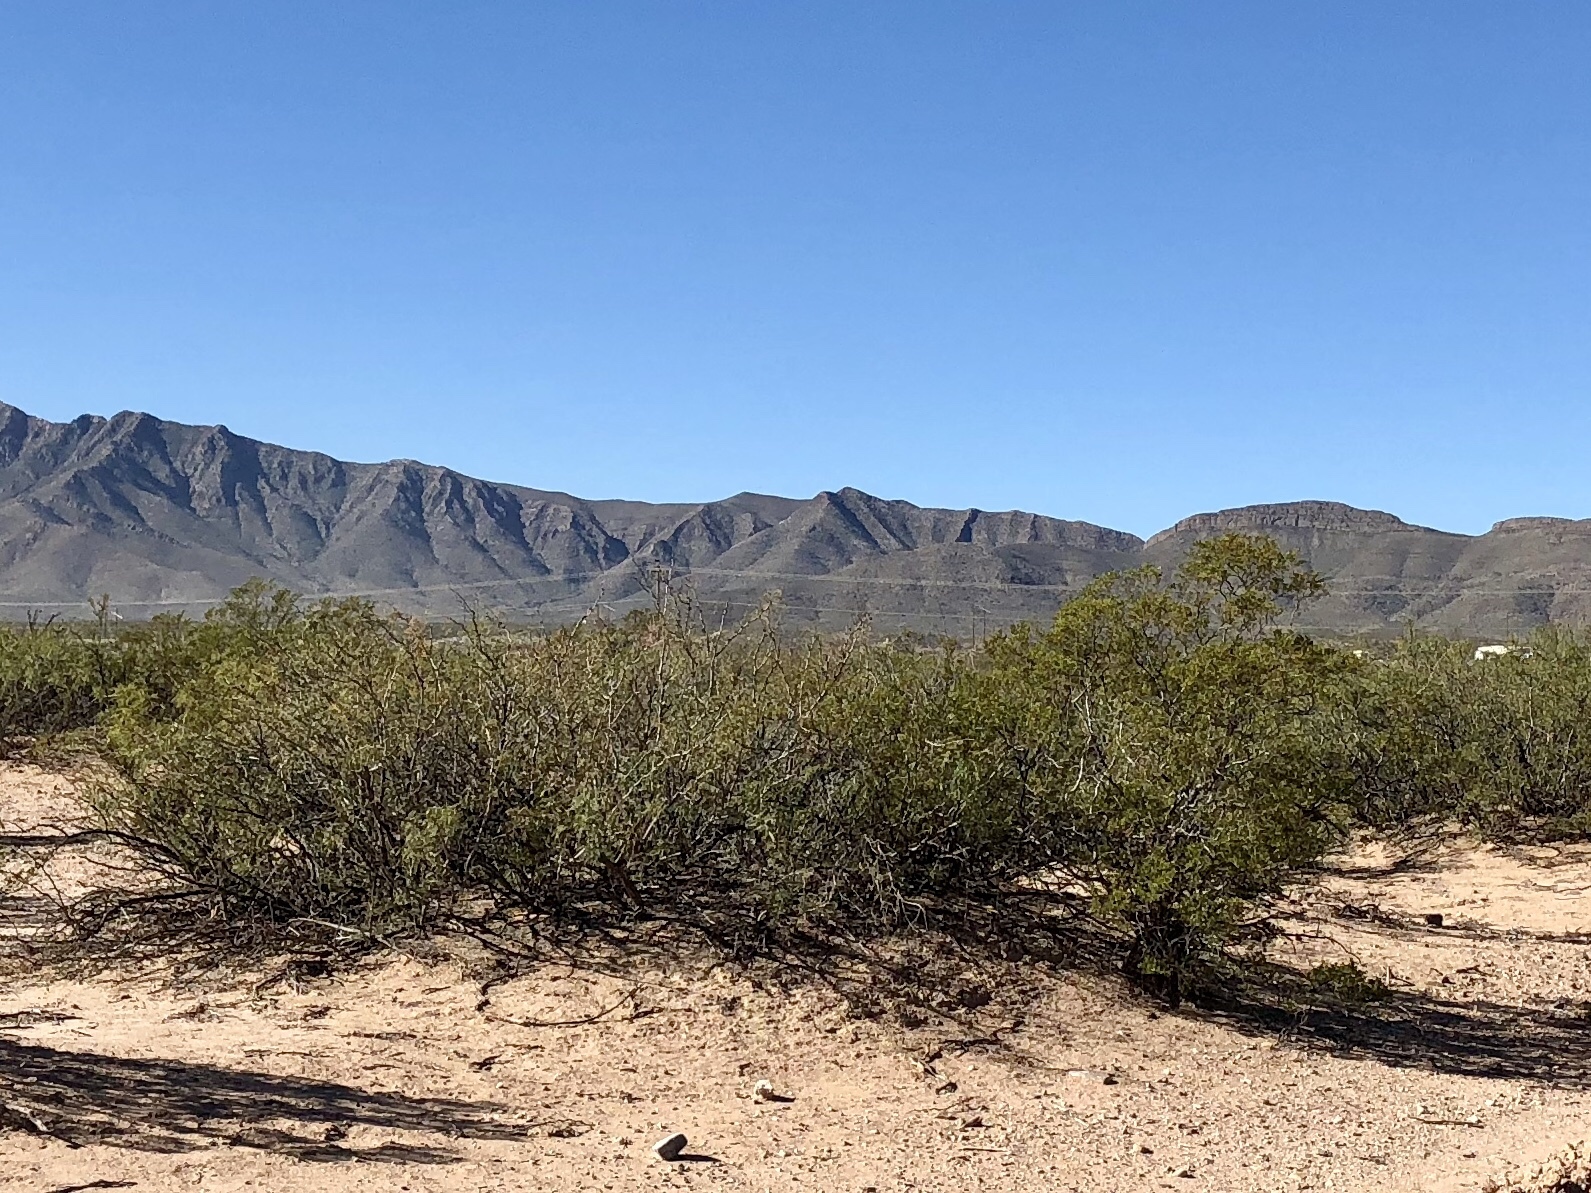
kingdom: Plantae
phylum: Tracheophyta
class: Magnoliopsida
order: Zygophyllales
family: Zygophyllaceae
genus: Larrea
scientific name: Larrea tridentata
